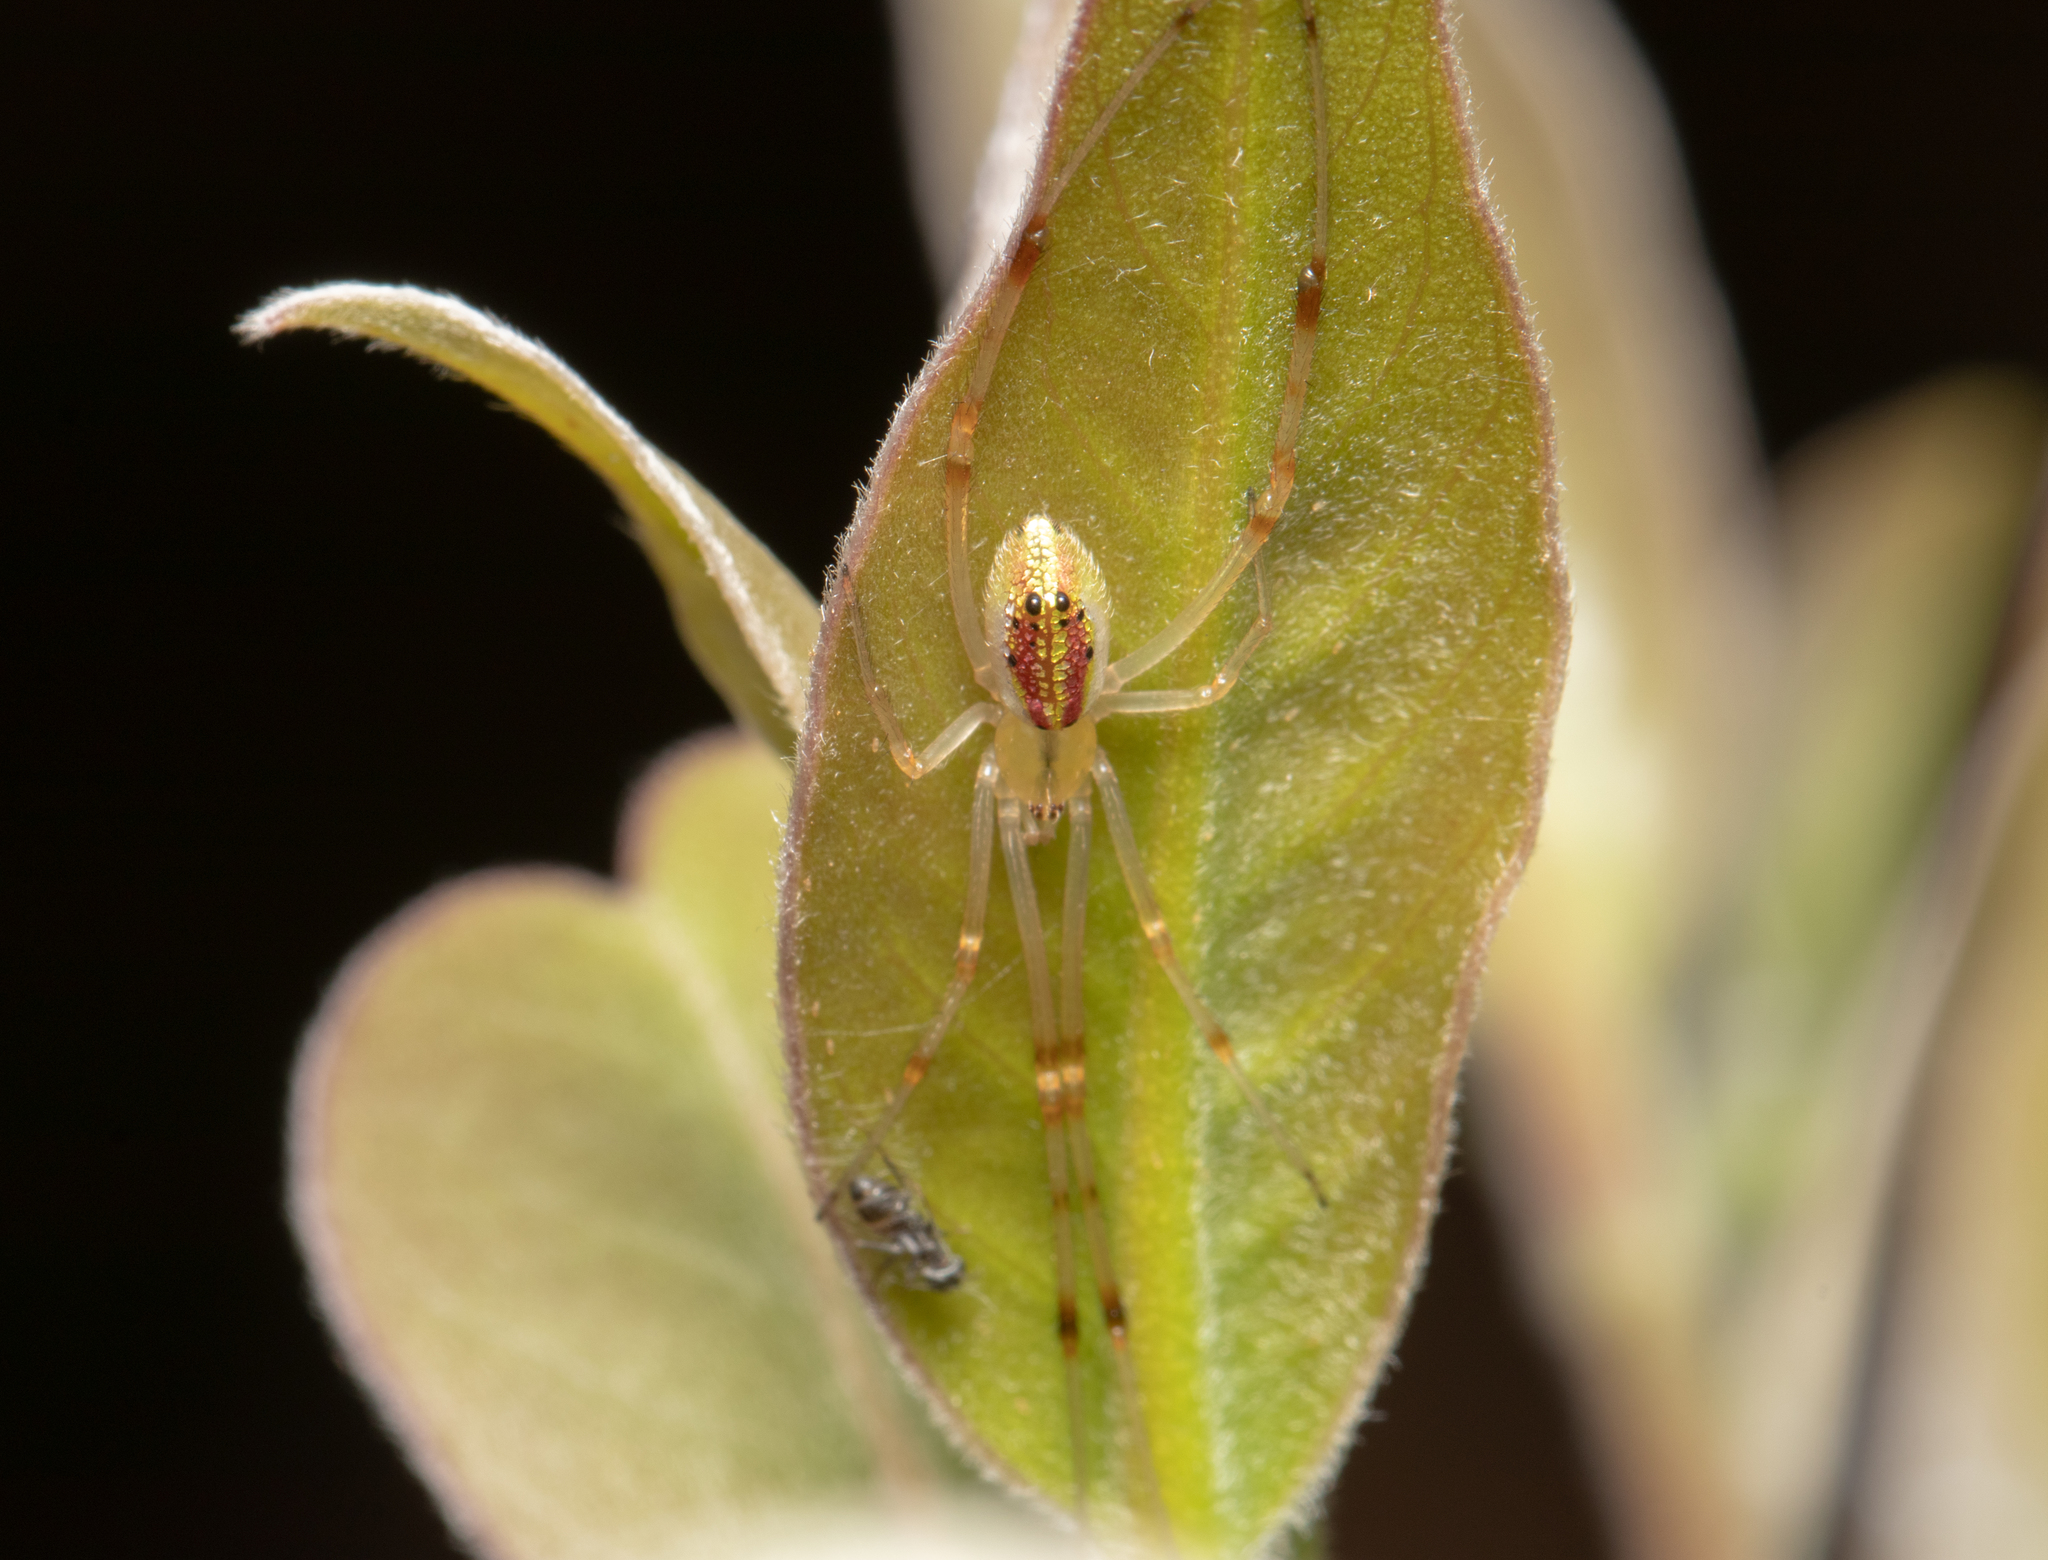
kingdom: Animalia
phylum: Arthropoda
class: Arachnida
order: Araneae
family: Theridiidae
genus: Thwaitesia
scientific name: Thwaitesia nigronodosa
